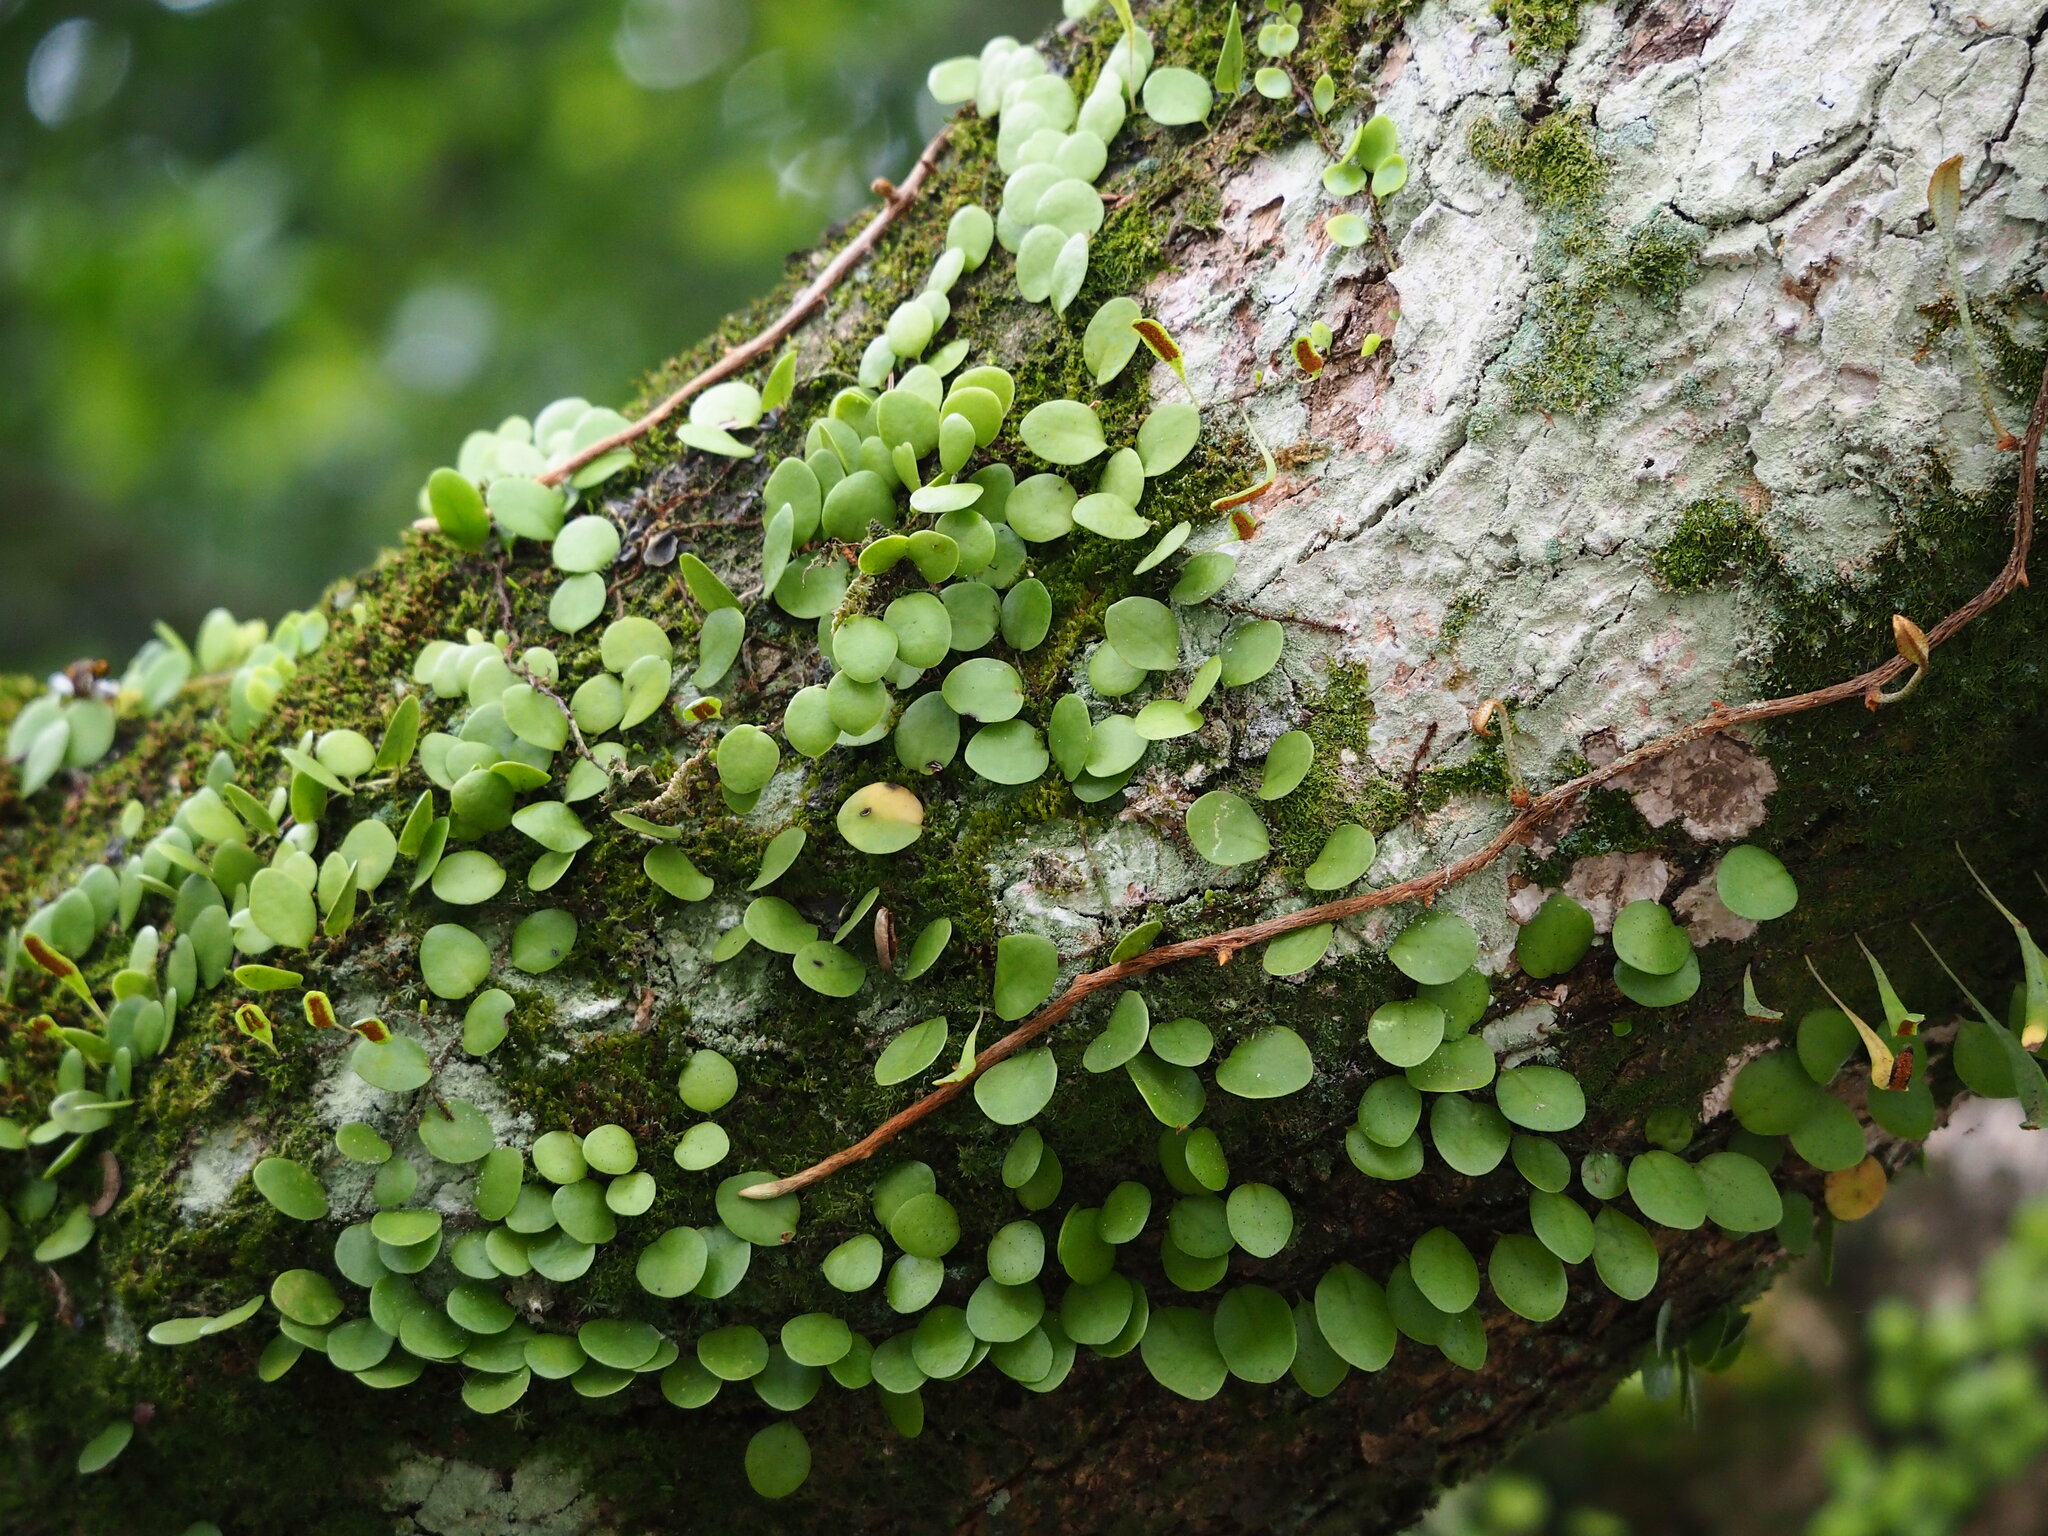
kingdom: Plantae
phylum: Tracheophyta
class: Polypodiopsida
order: Polypodiales
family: Polypodiaceae
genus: Lepisorus
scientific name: Lepisorus microphyllus
